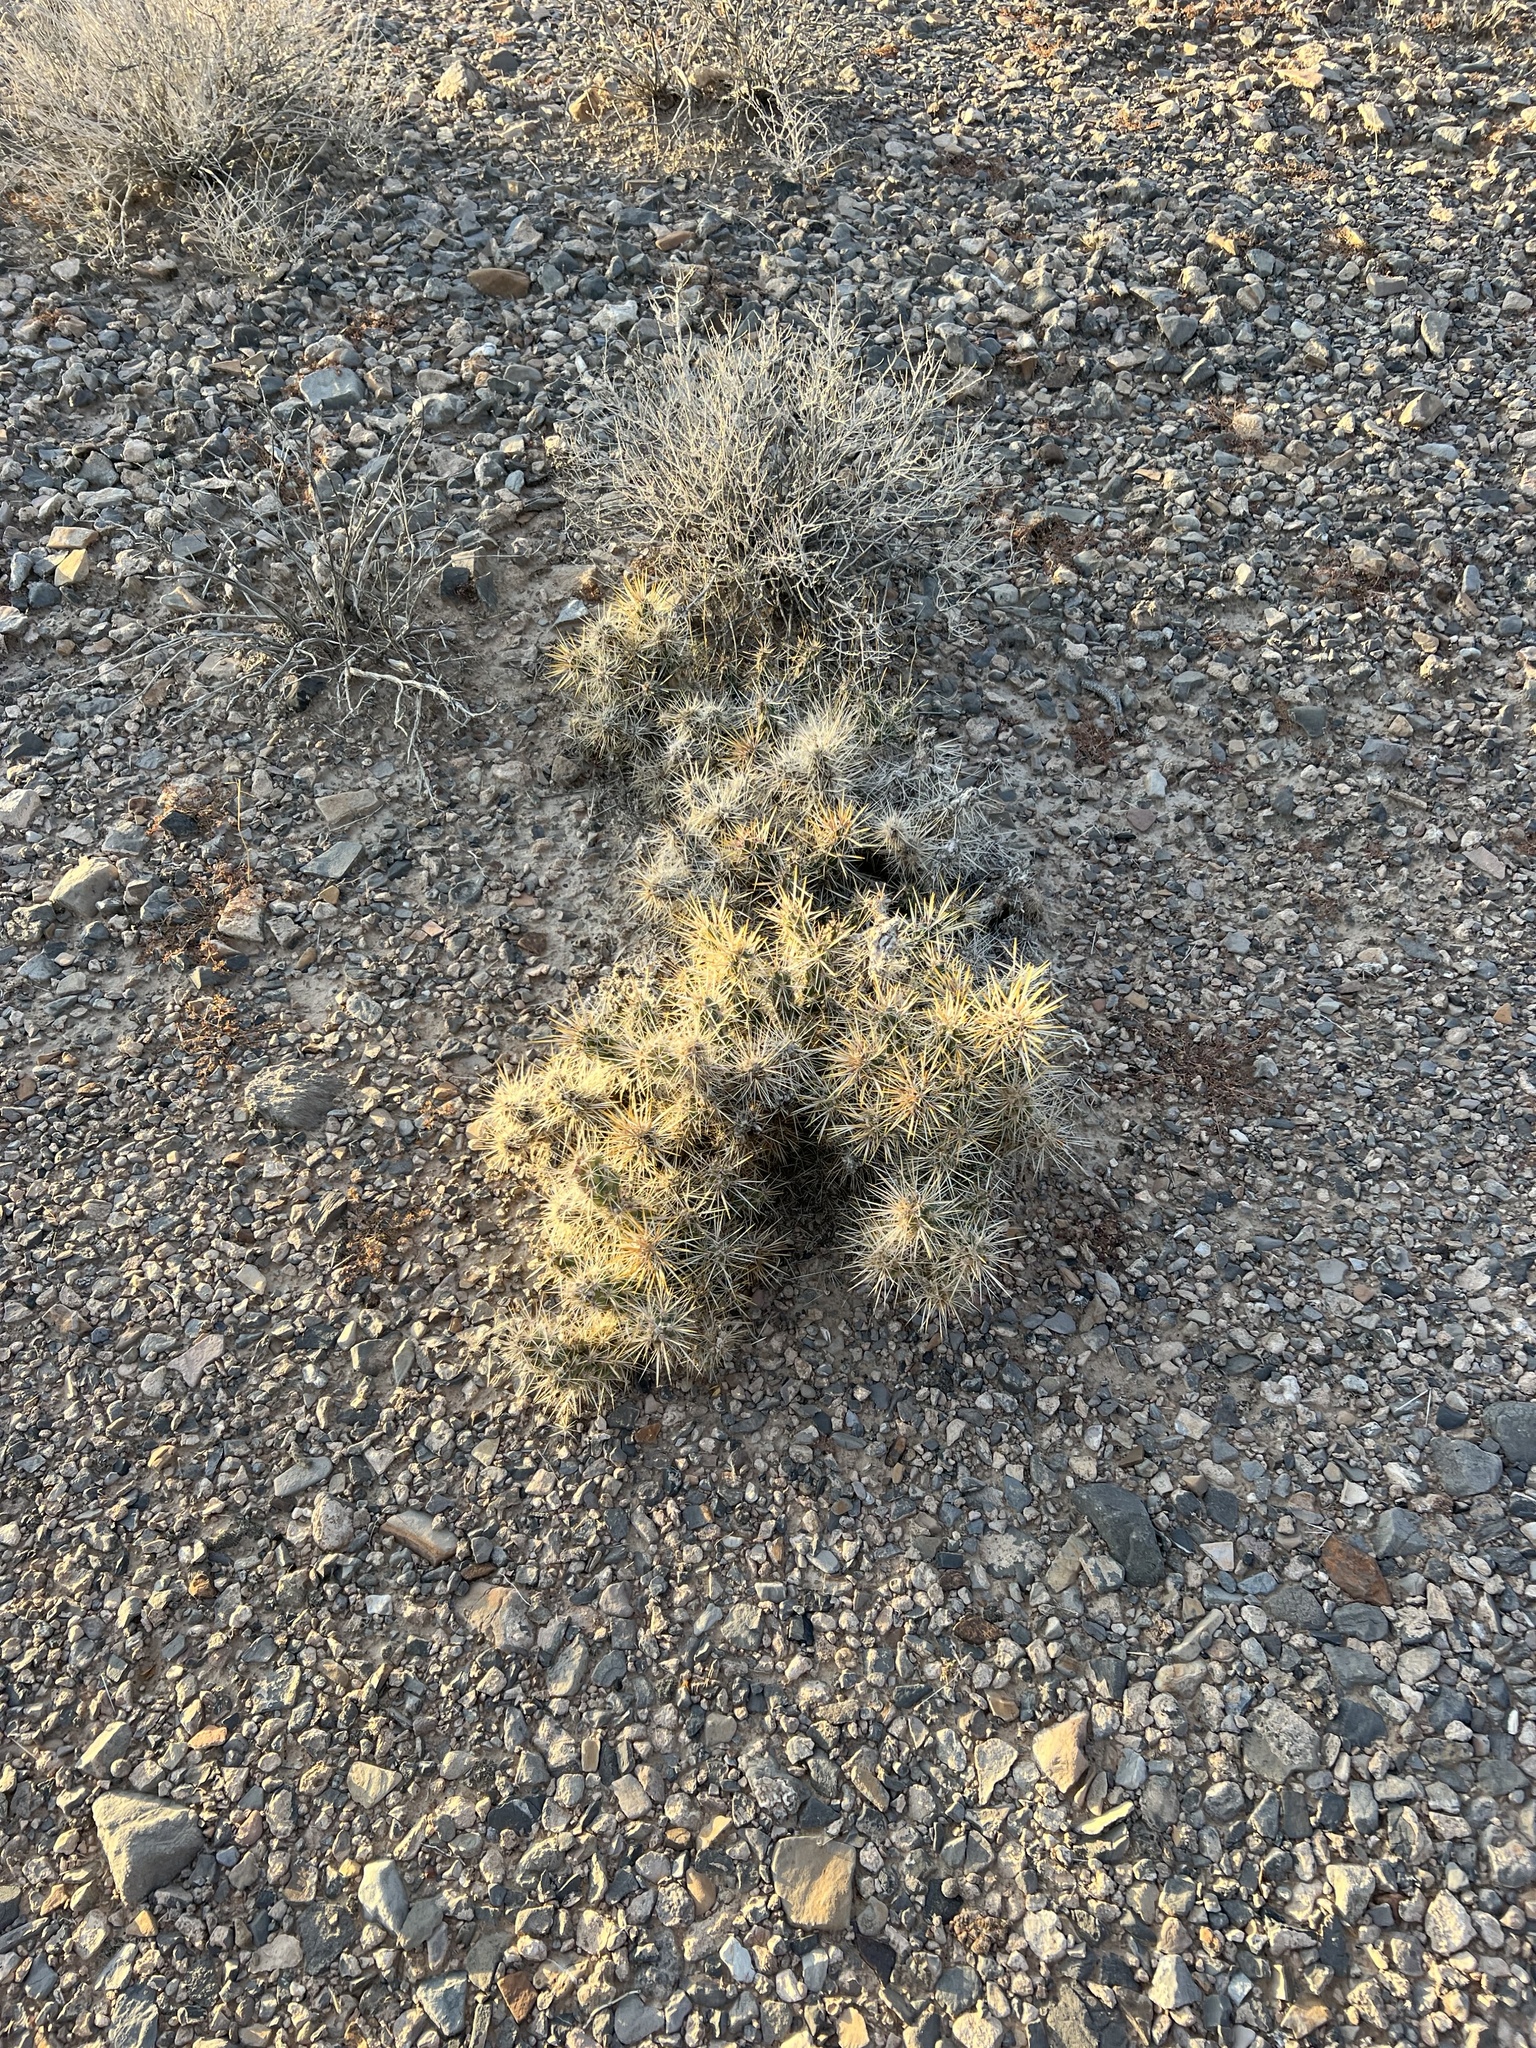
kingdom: Plantae
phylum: Tracheophyta
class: Magnoliopsida
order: Caryophyllales
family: Cactaceae
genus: Cylindropuntia
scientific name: Cylindropuntia echinocarpa
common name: Ground cholla
